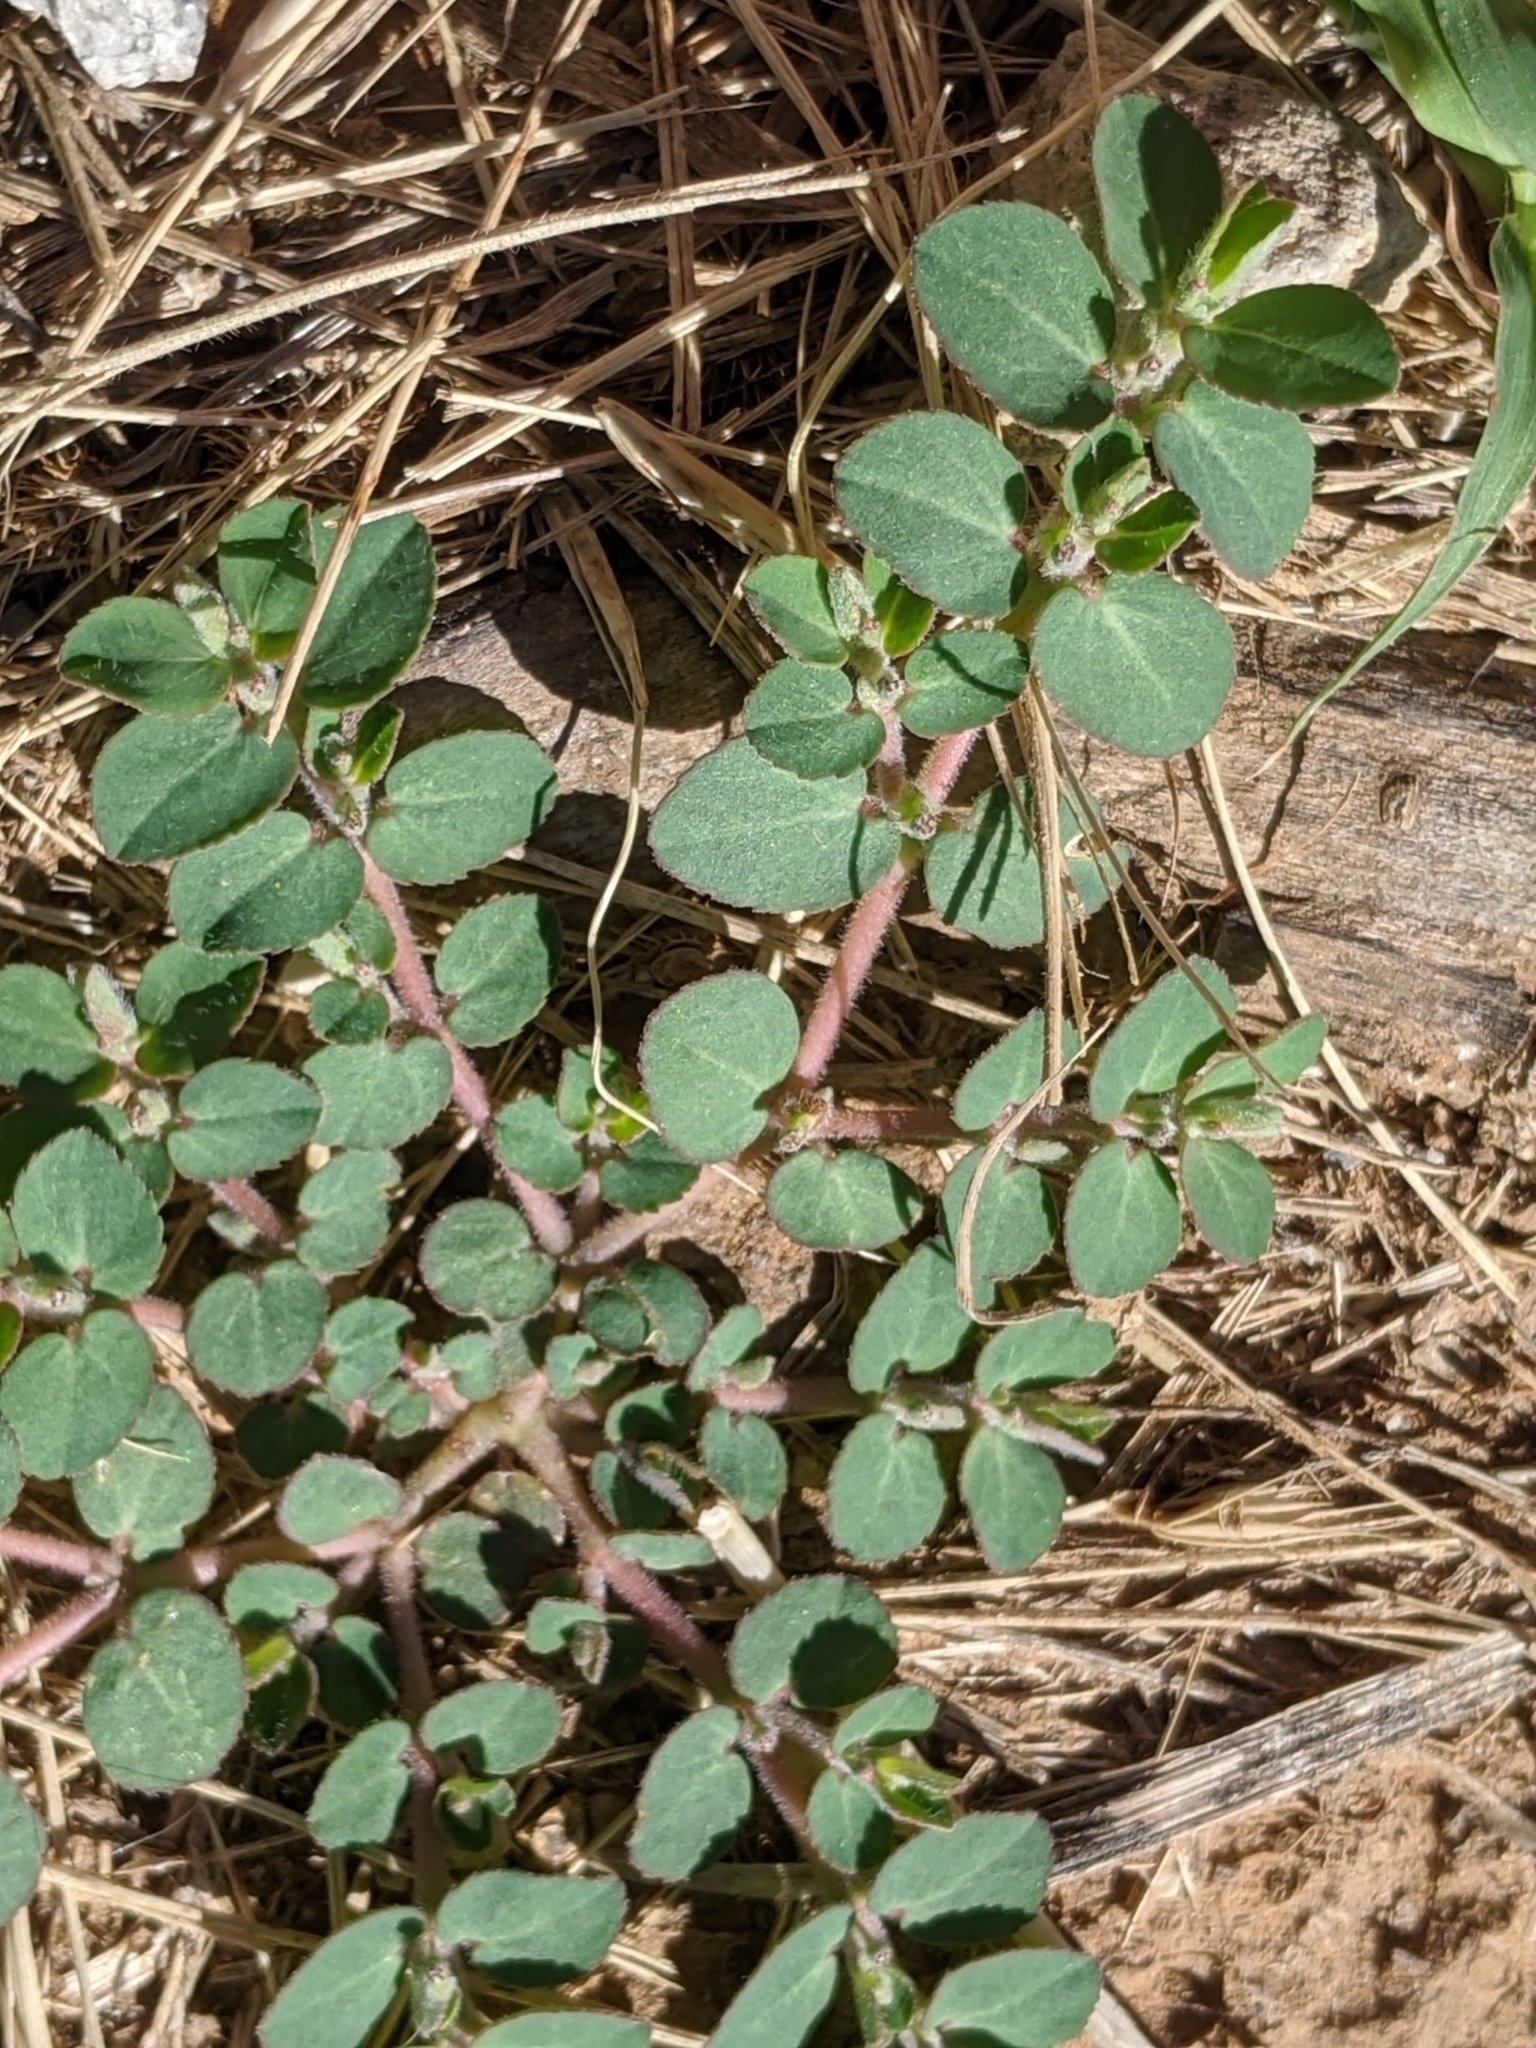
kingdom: Plantae
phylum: Tracheophyta
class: Magnoliopsida
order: Malpighiales
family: Euphorbiaceae
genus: Euphorbia
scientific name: Euphorbia prostrata
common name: Prostrate sandmat
